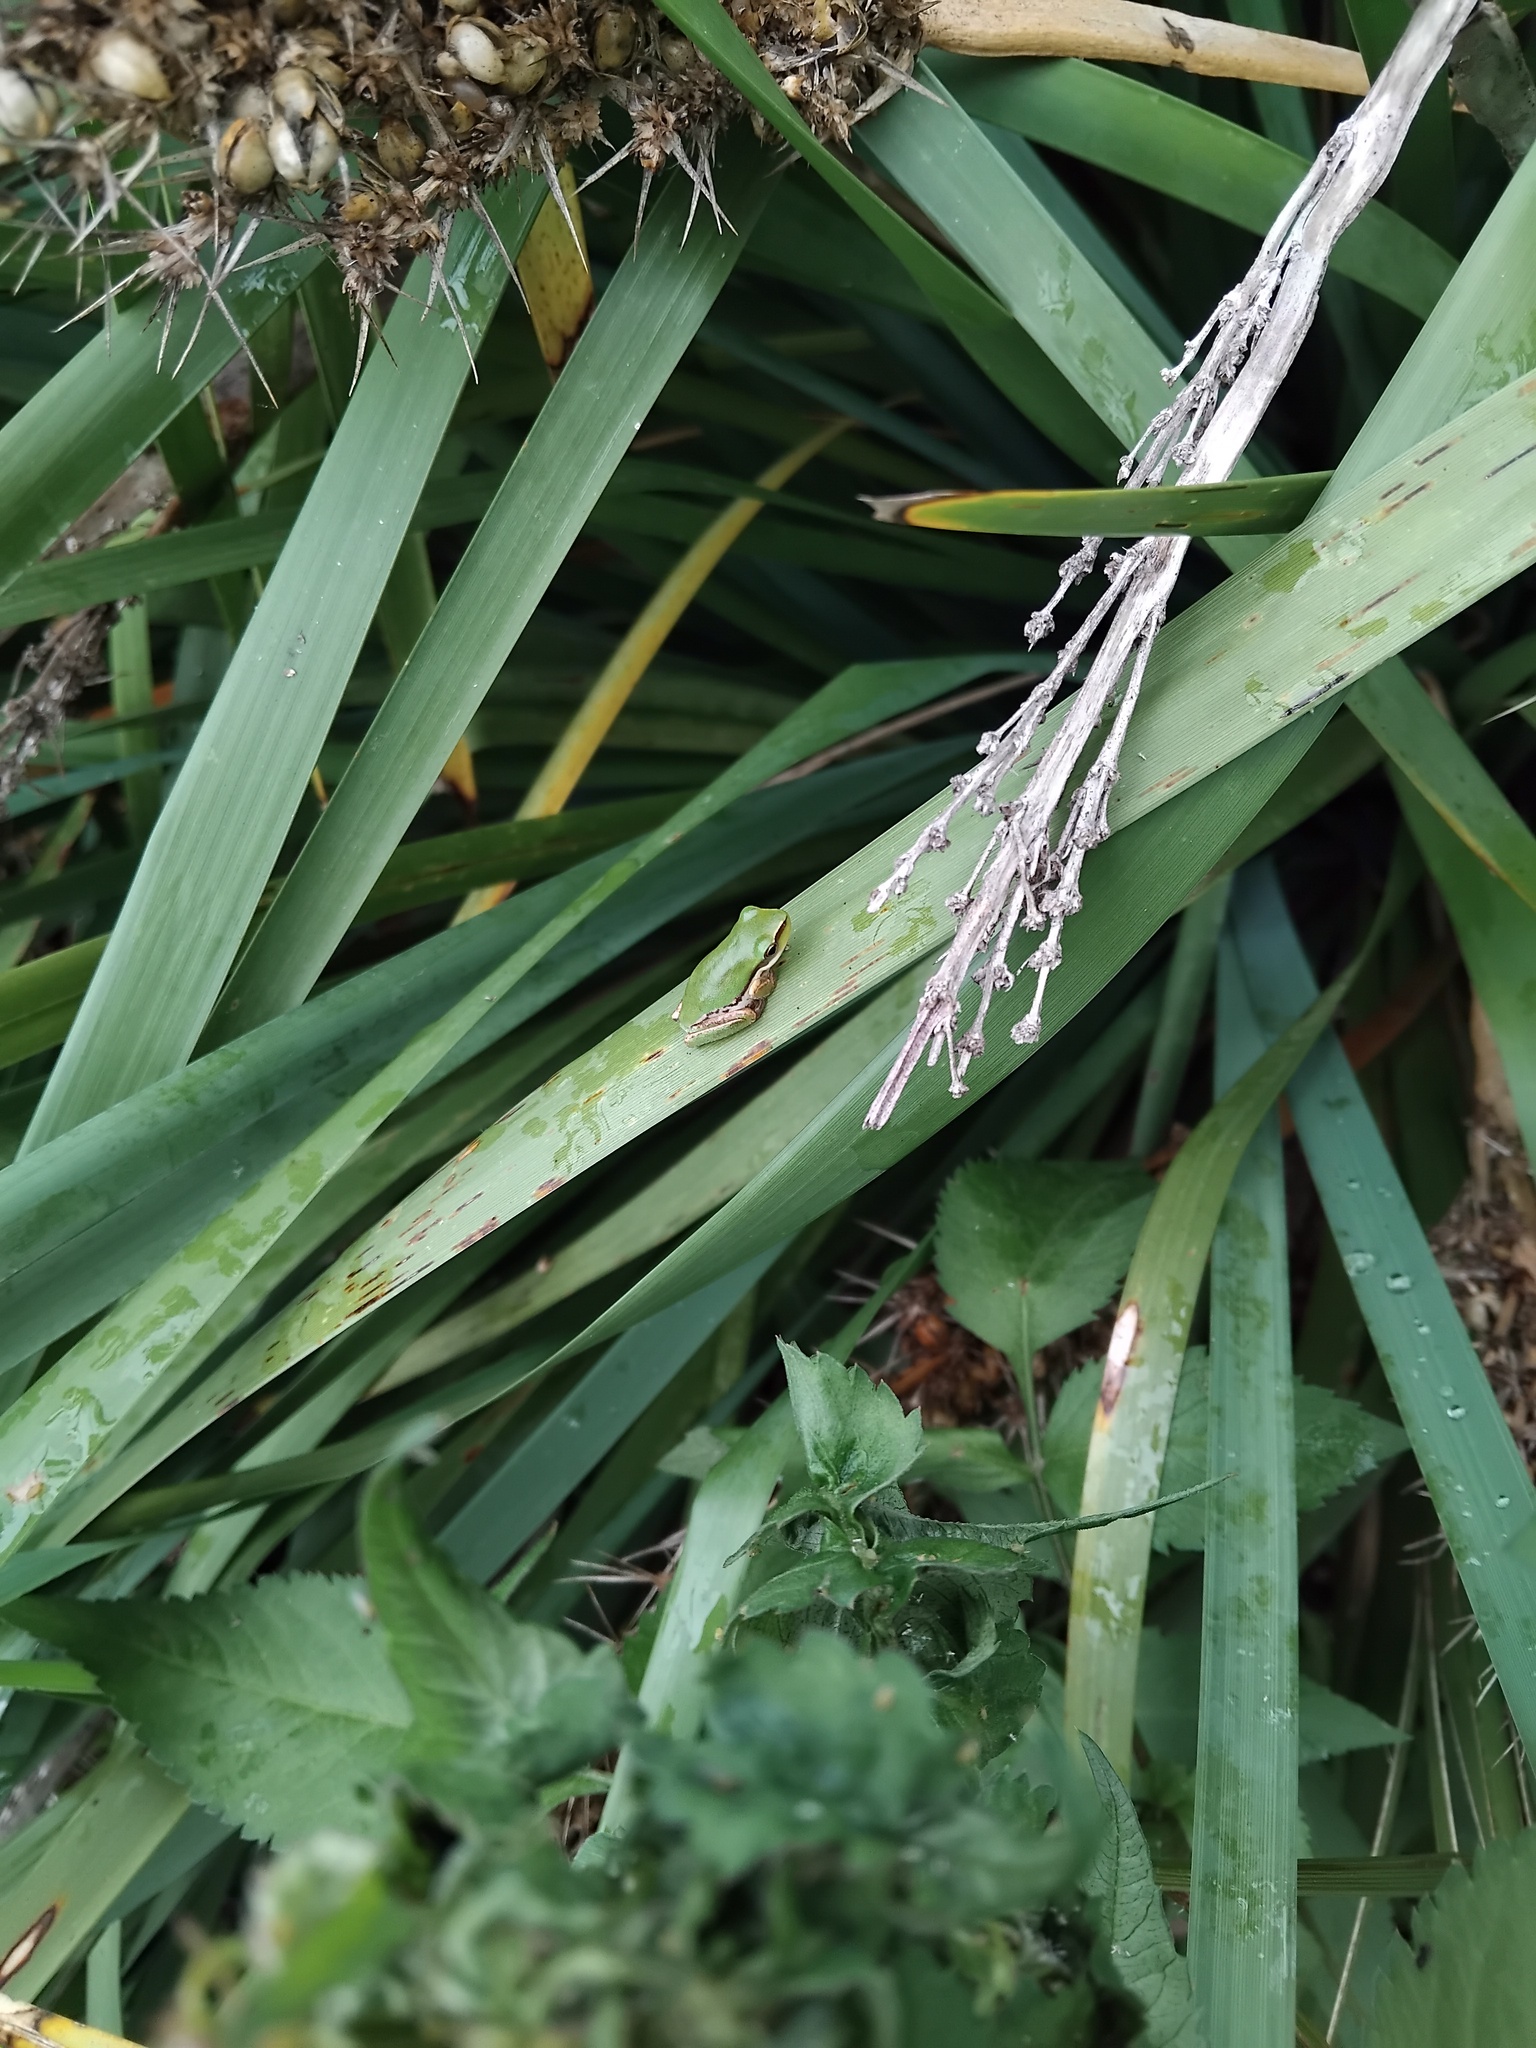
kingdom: Animalia
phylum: Chordata
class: Amphibia
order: Anura
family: Pelodryadidae
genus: Litoria
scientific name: Litoria fallax
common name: Eastern dwarf treefrog
